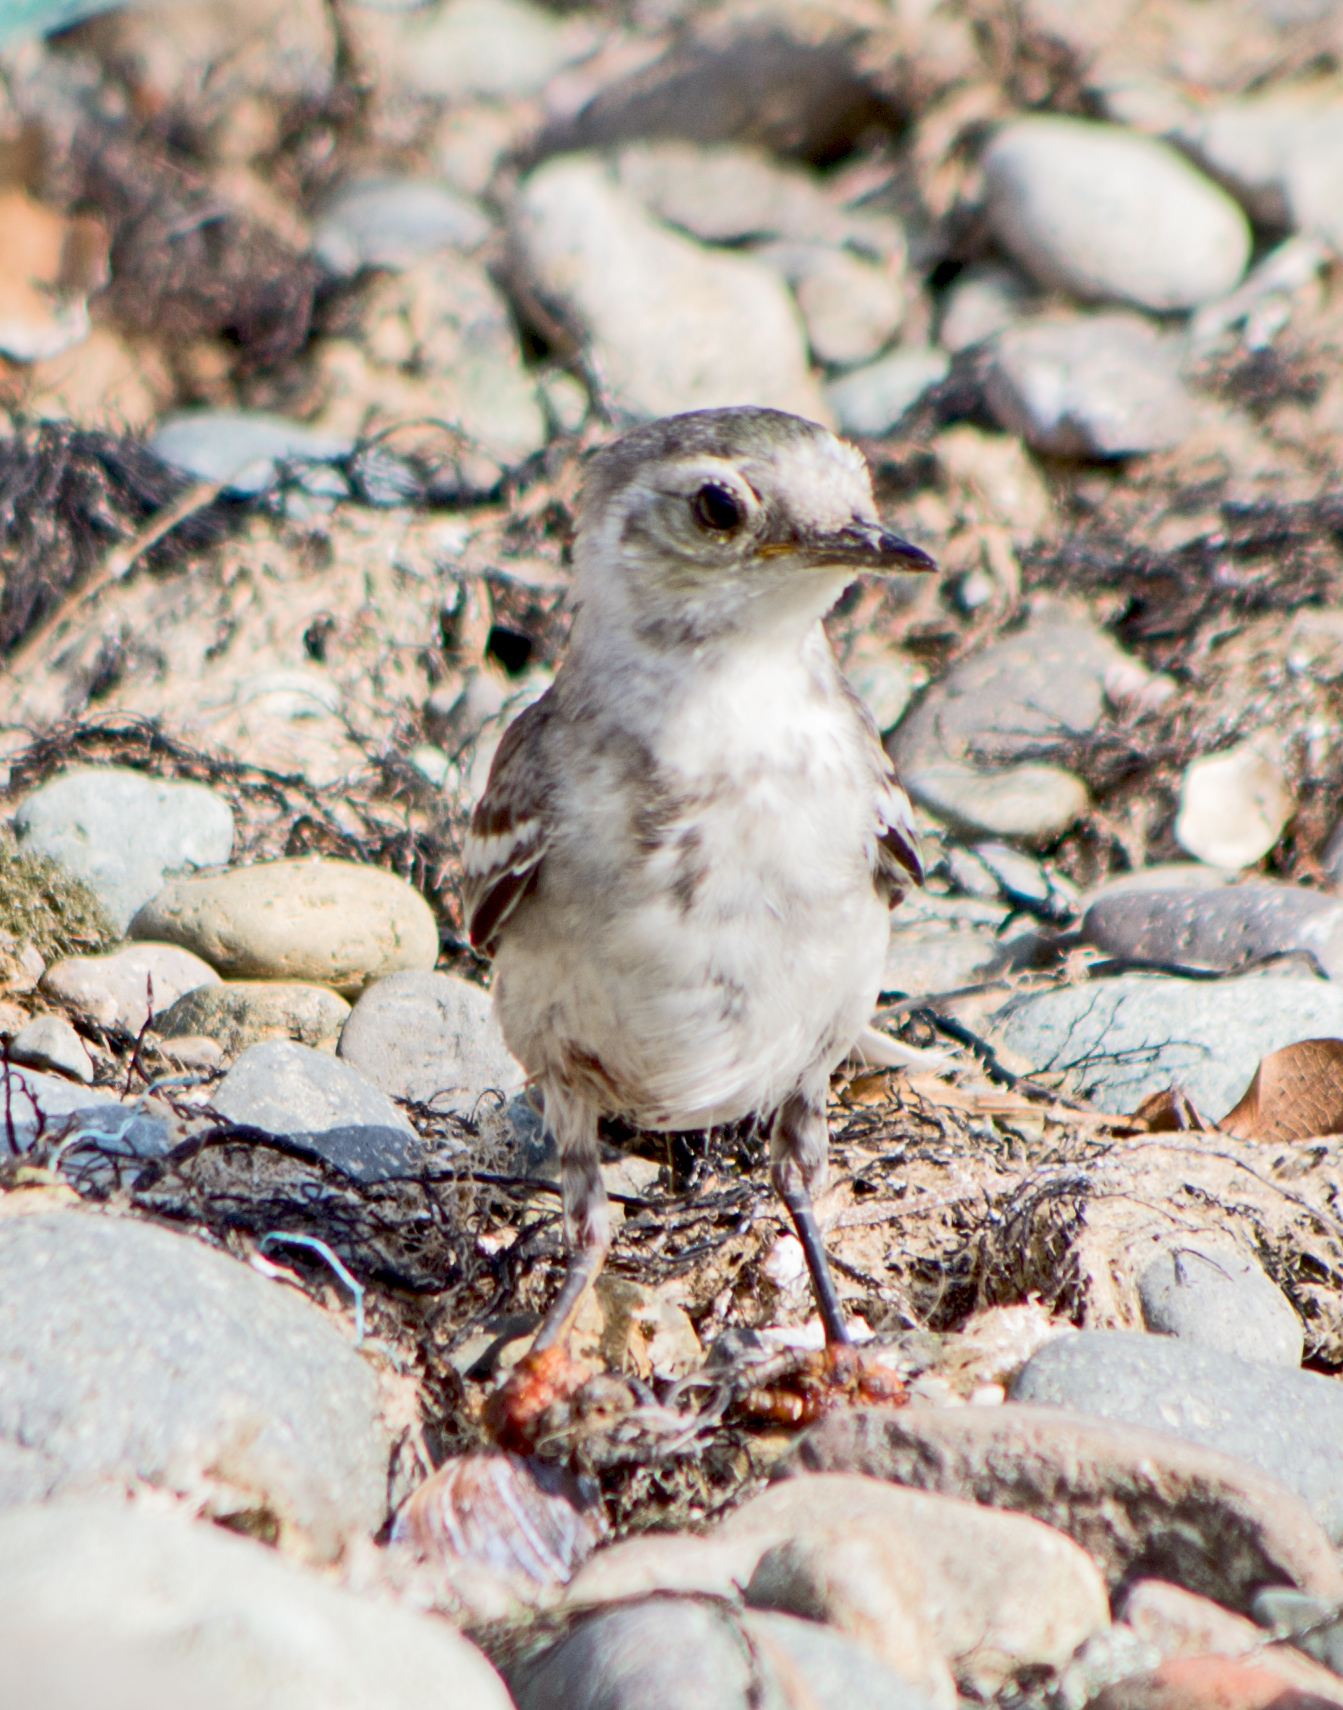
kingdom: Animalia
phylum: Chordata
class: Aves
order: Passeriformes
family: Motacillidae
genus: Motacilla
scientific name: Motacilla alba
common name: White wagtail
